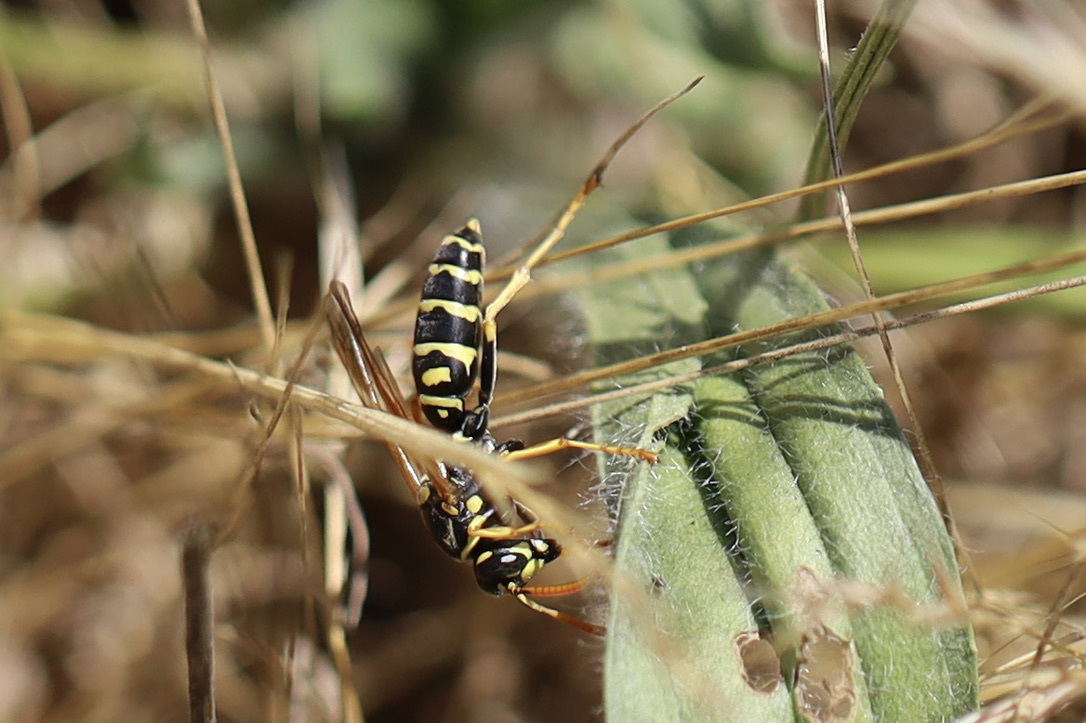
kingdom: Animalia
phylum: Arthropoda
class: Insecta
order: Hymenoptera
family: Eumenidae
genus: Polistes
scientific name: Polistes dominula
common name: Paper wasp
